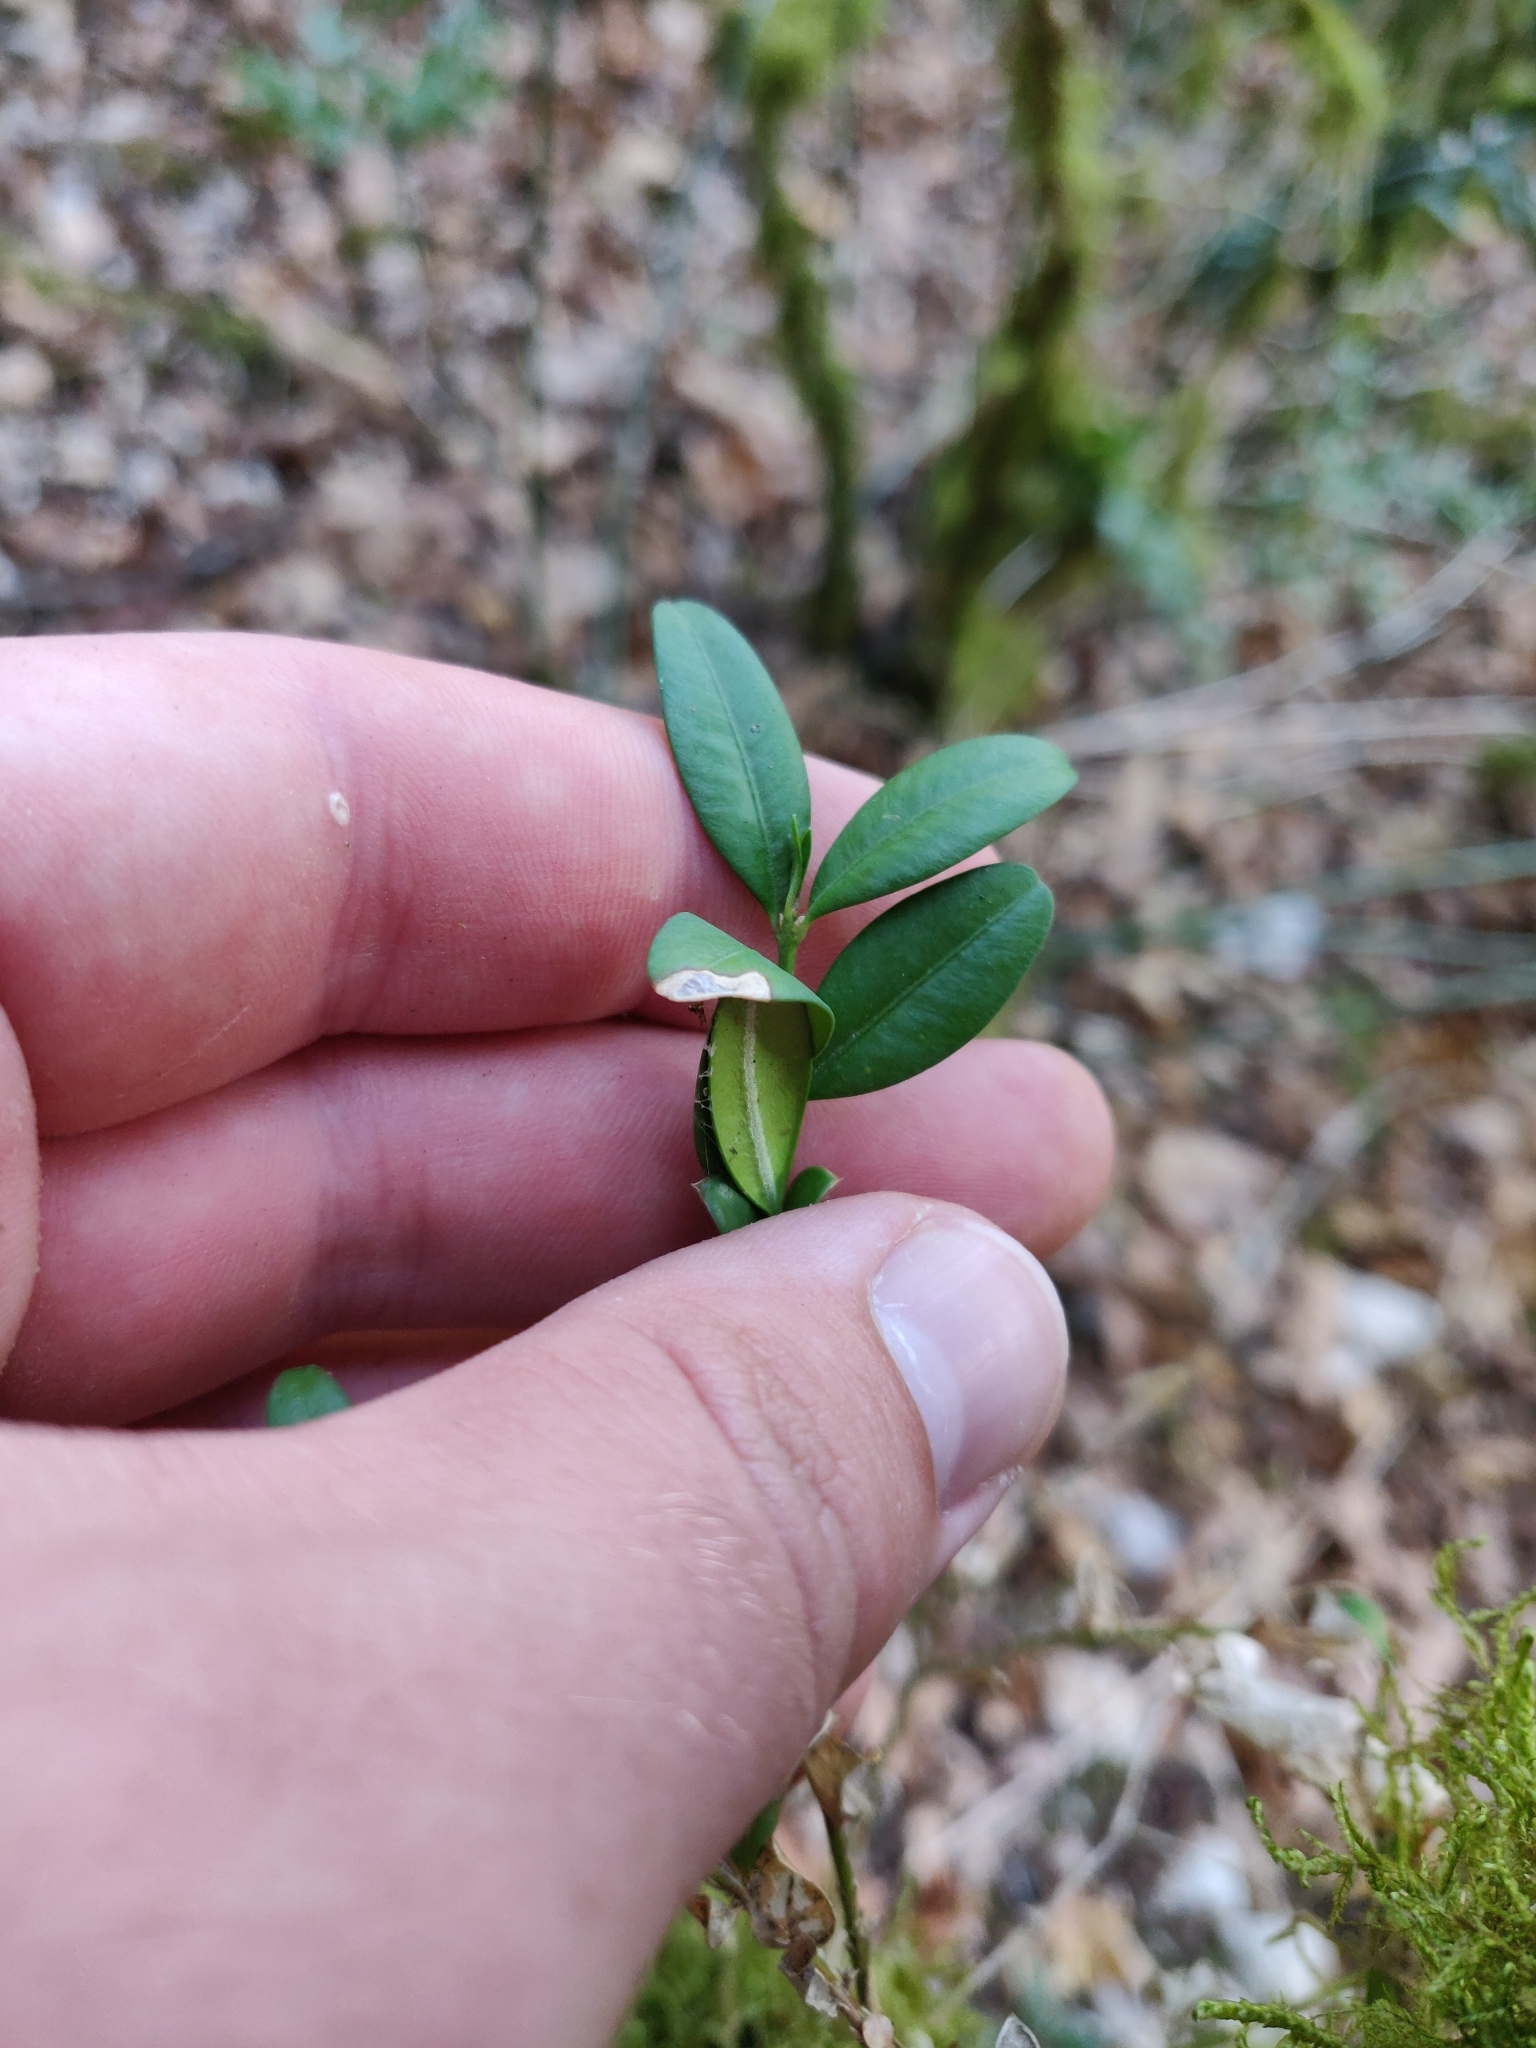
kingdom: Plantae
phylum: Tracheophyta
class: Magnoliopsida
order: Buxales
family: Buxaceae
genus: Buxus
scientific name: Buxus sempervirens
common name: Box
